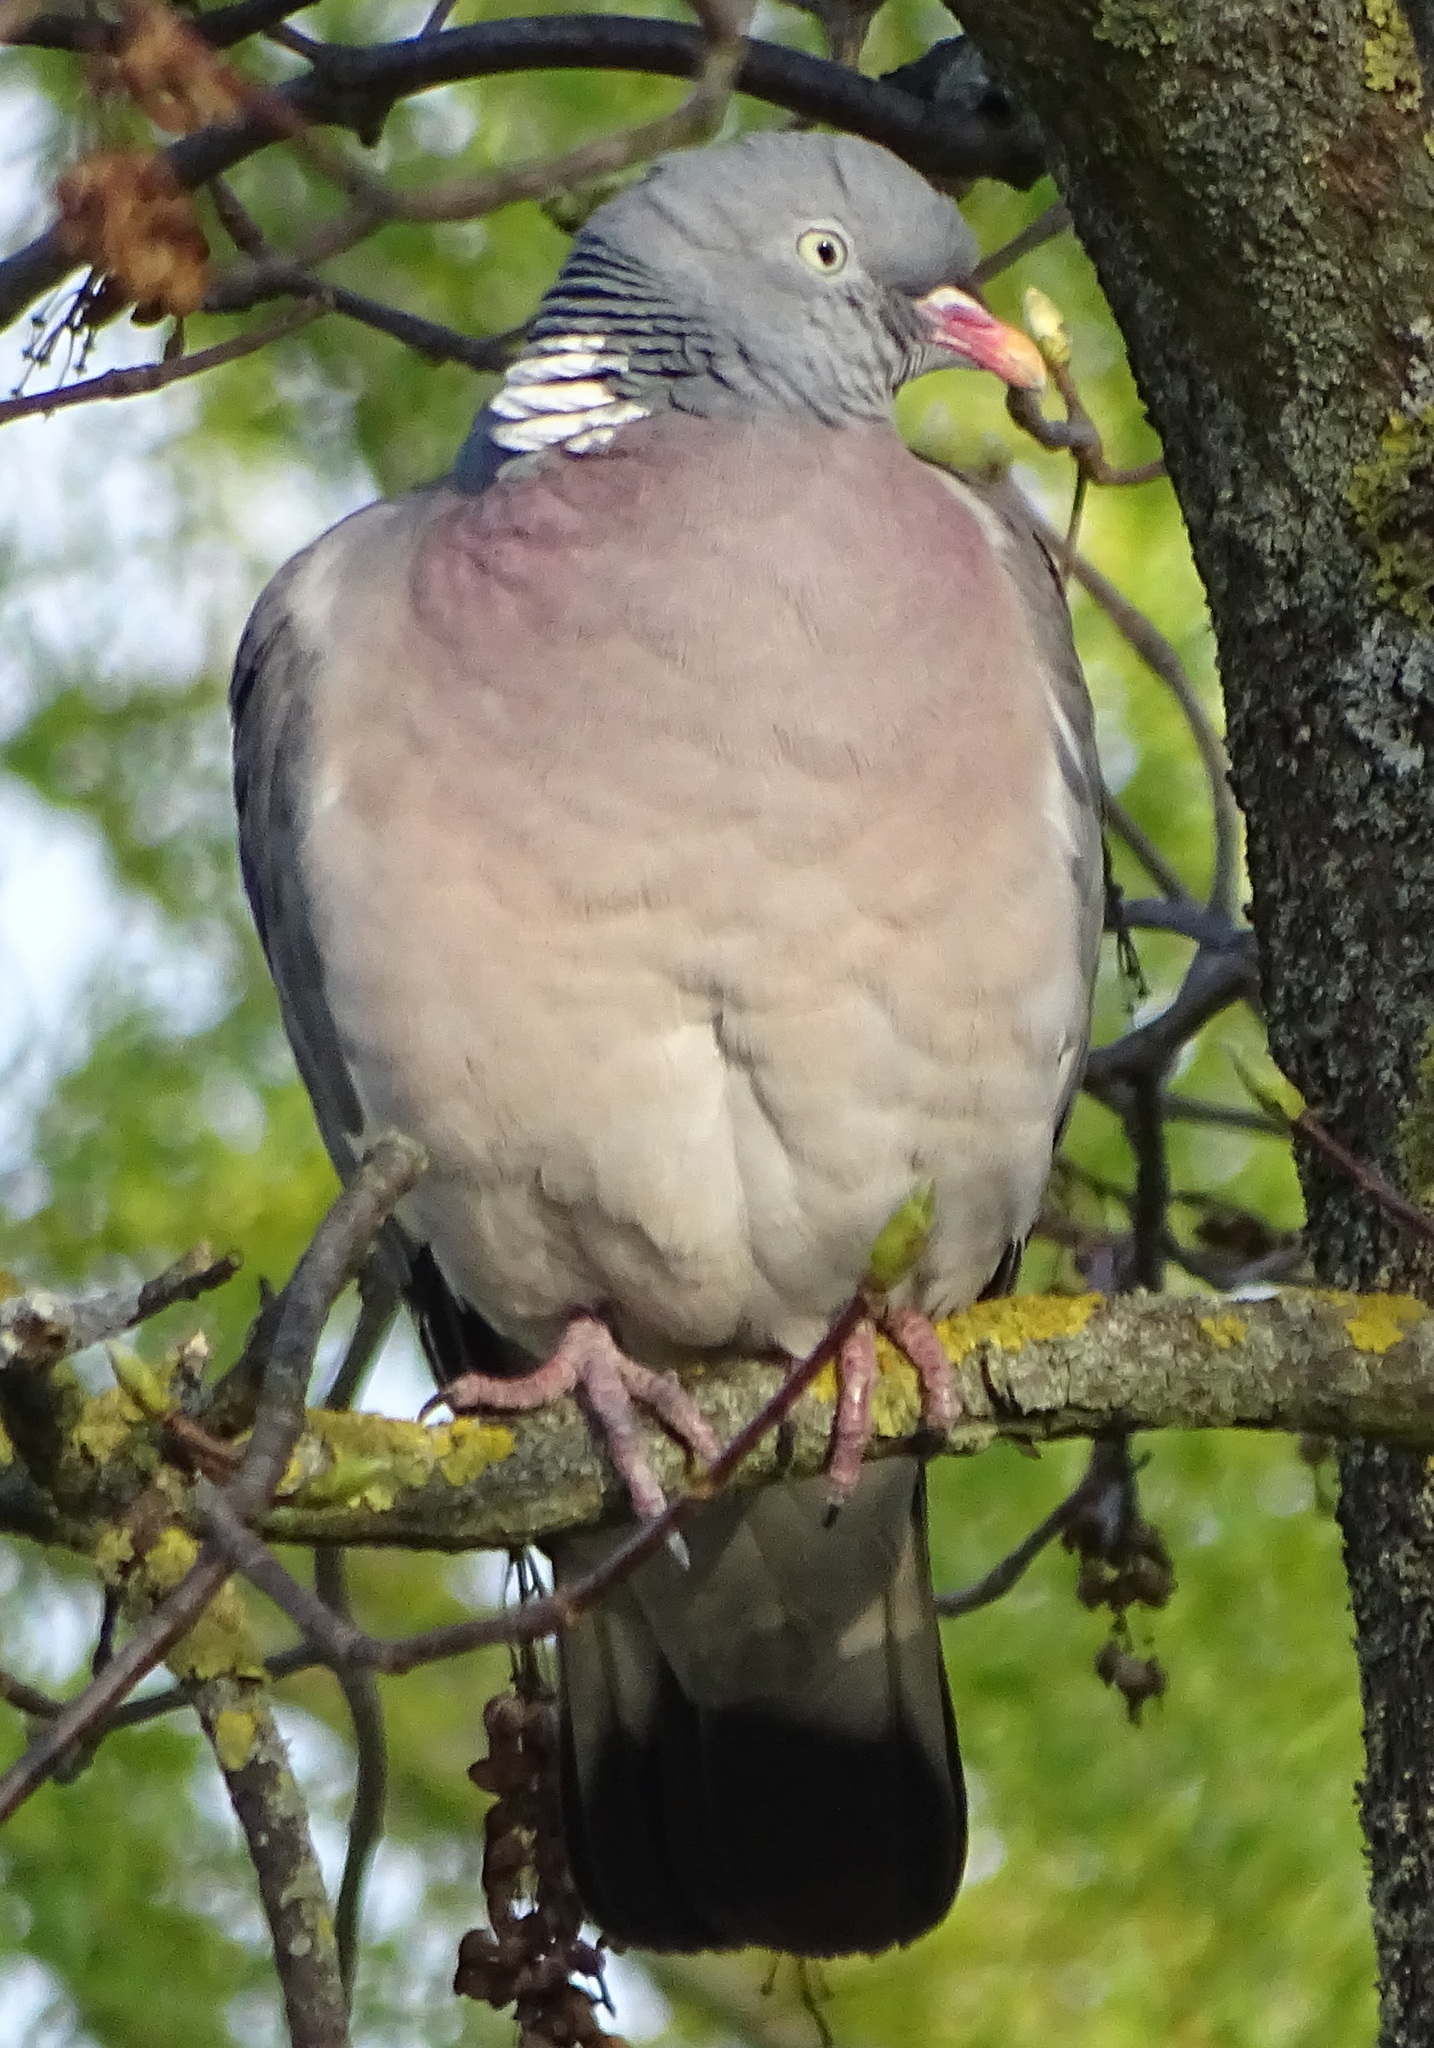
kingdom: Animalia
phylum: Chordata
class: Aves
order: Columbiformes
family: Columbidae
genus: Columba
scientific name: Columba palumbus
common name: Common wood pigeon
